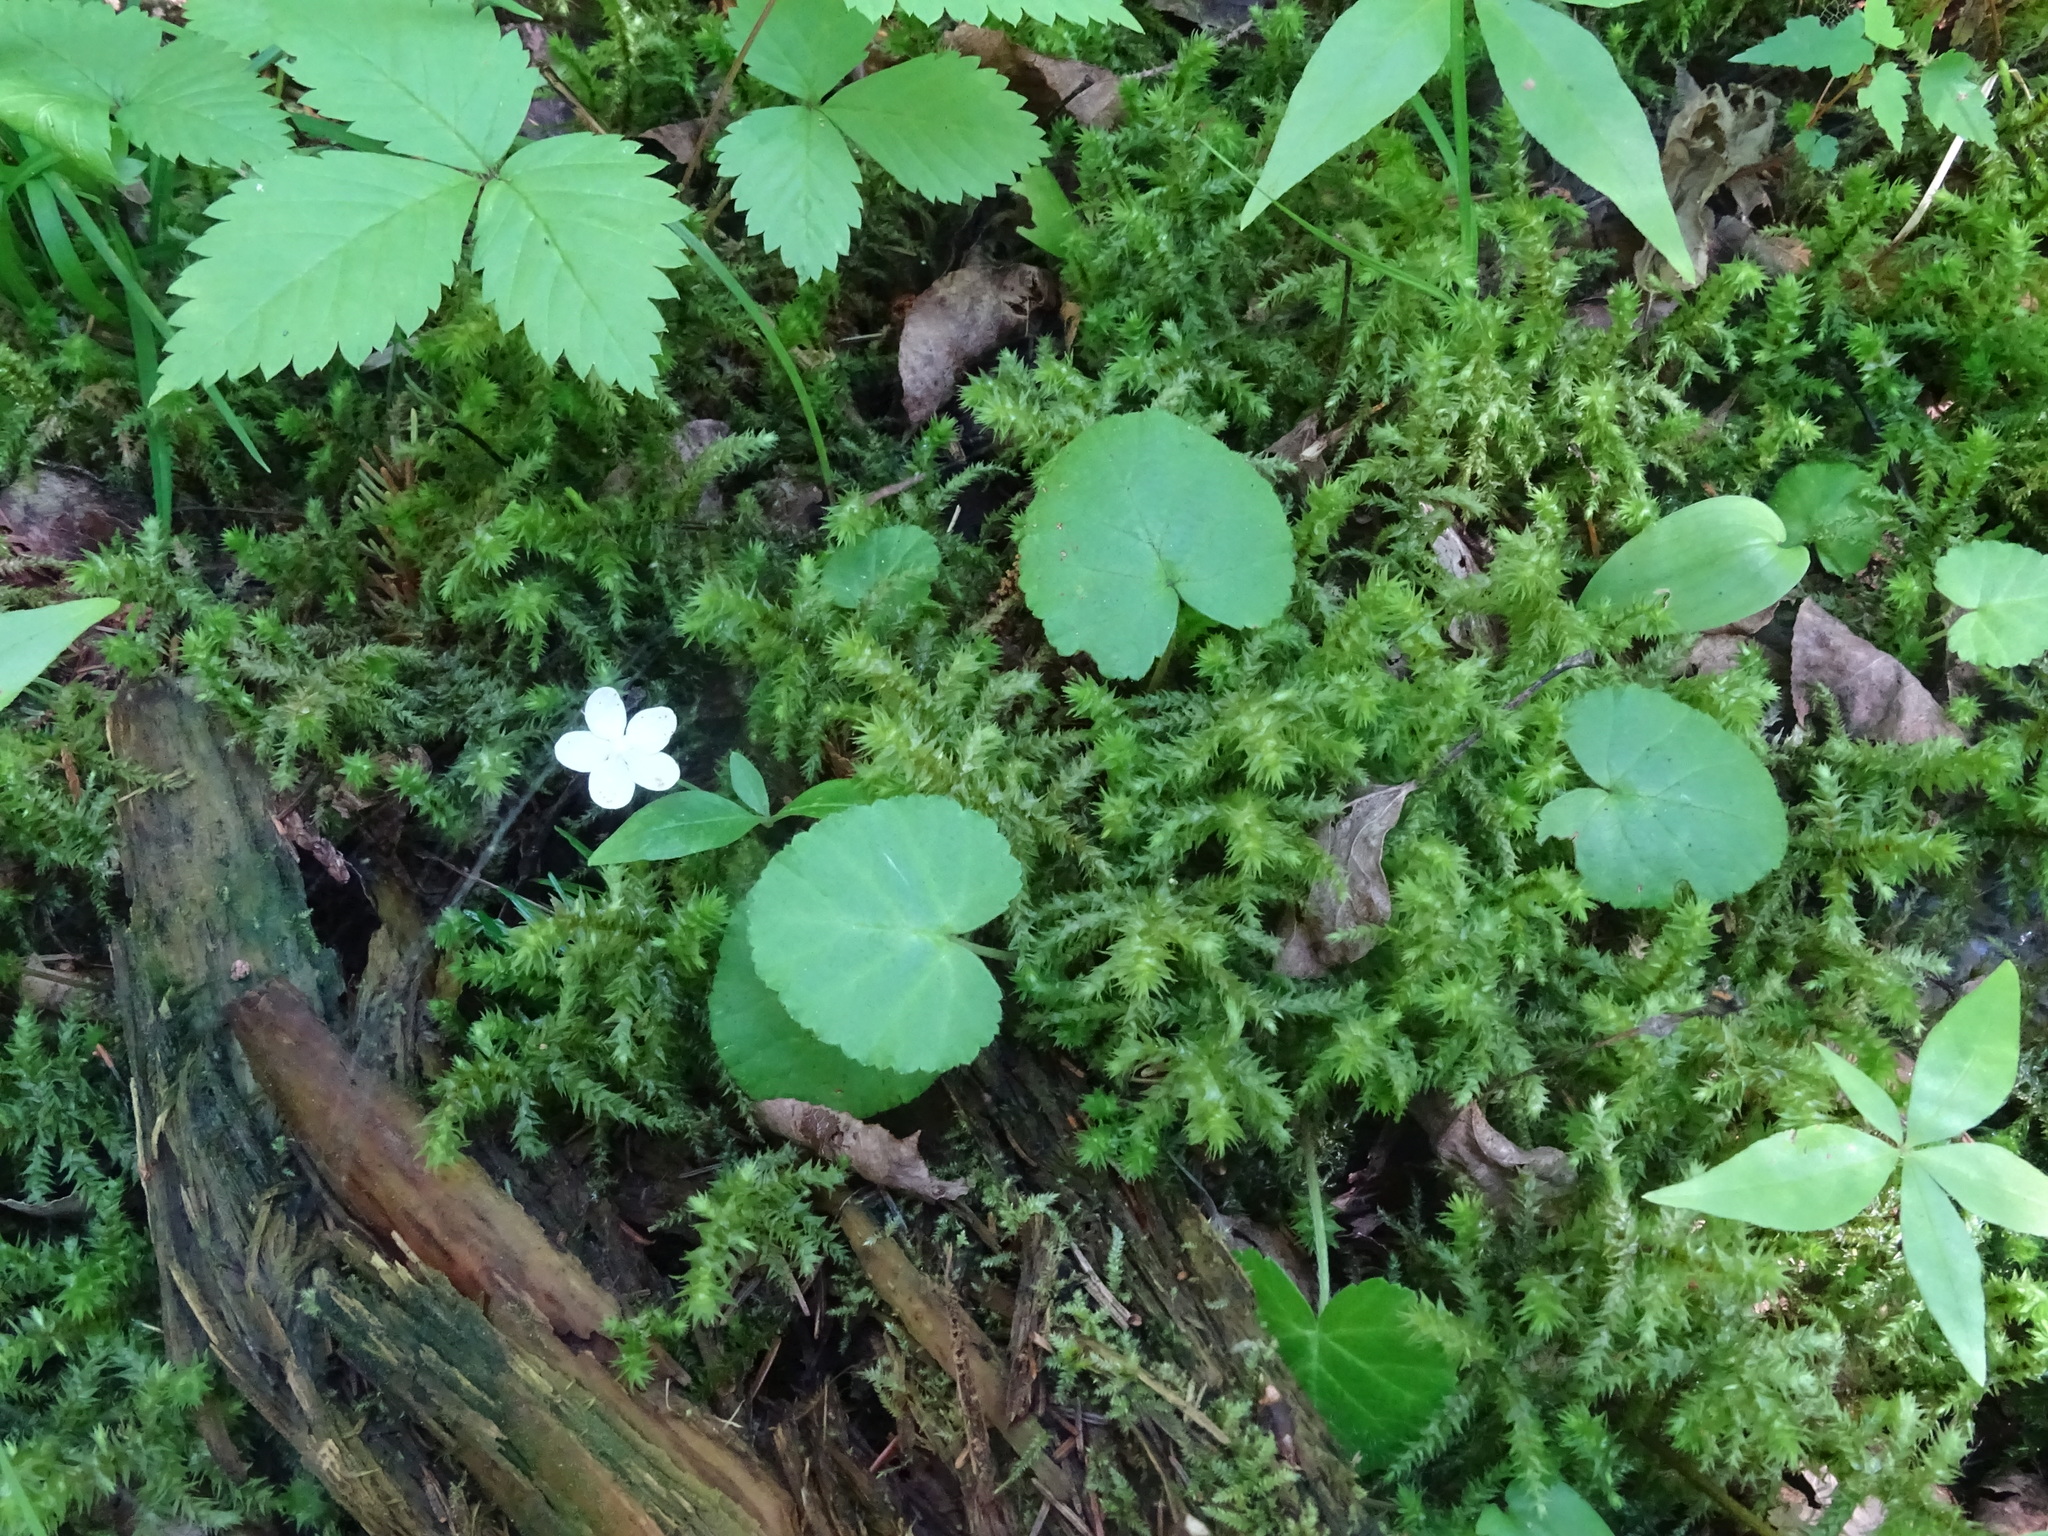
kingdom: Plantae
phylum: Tracheophyta
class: Magnoliopsida
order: Rosales
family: Rosaceae
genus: Dalibarda
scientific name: Dalibarda repens
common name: Dewdrop
